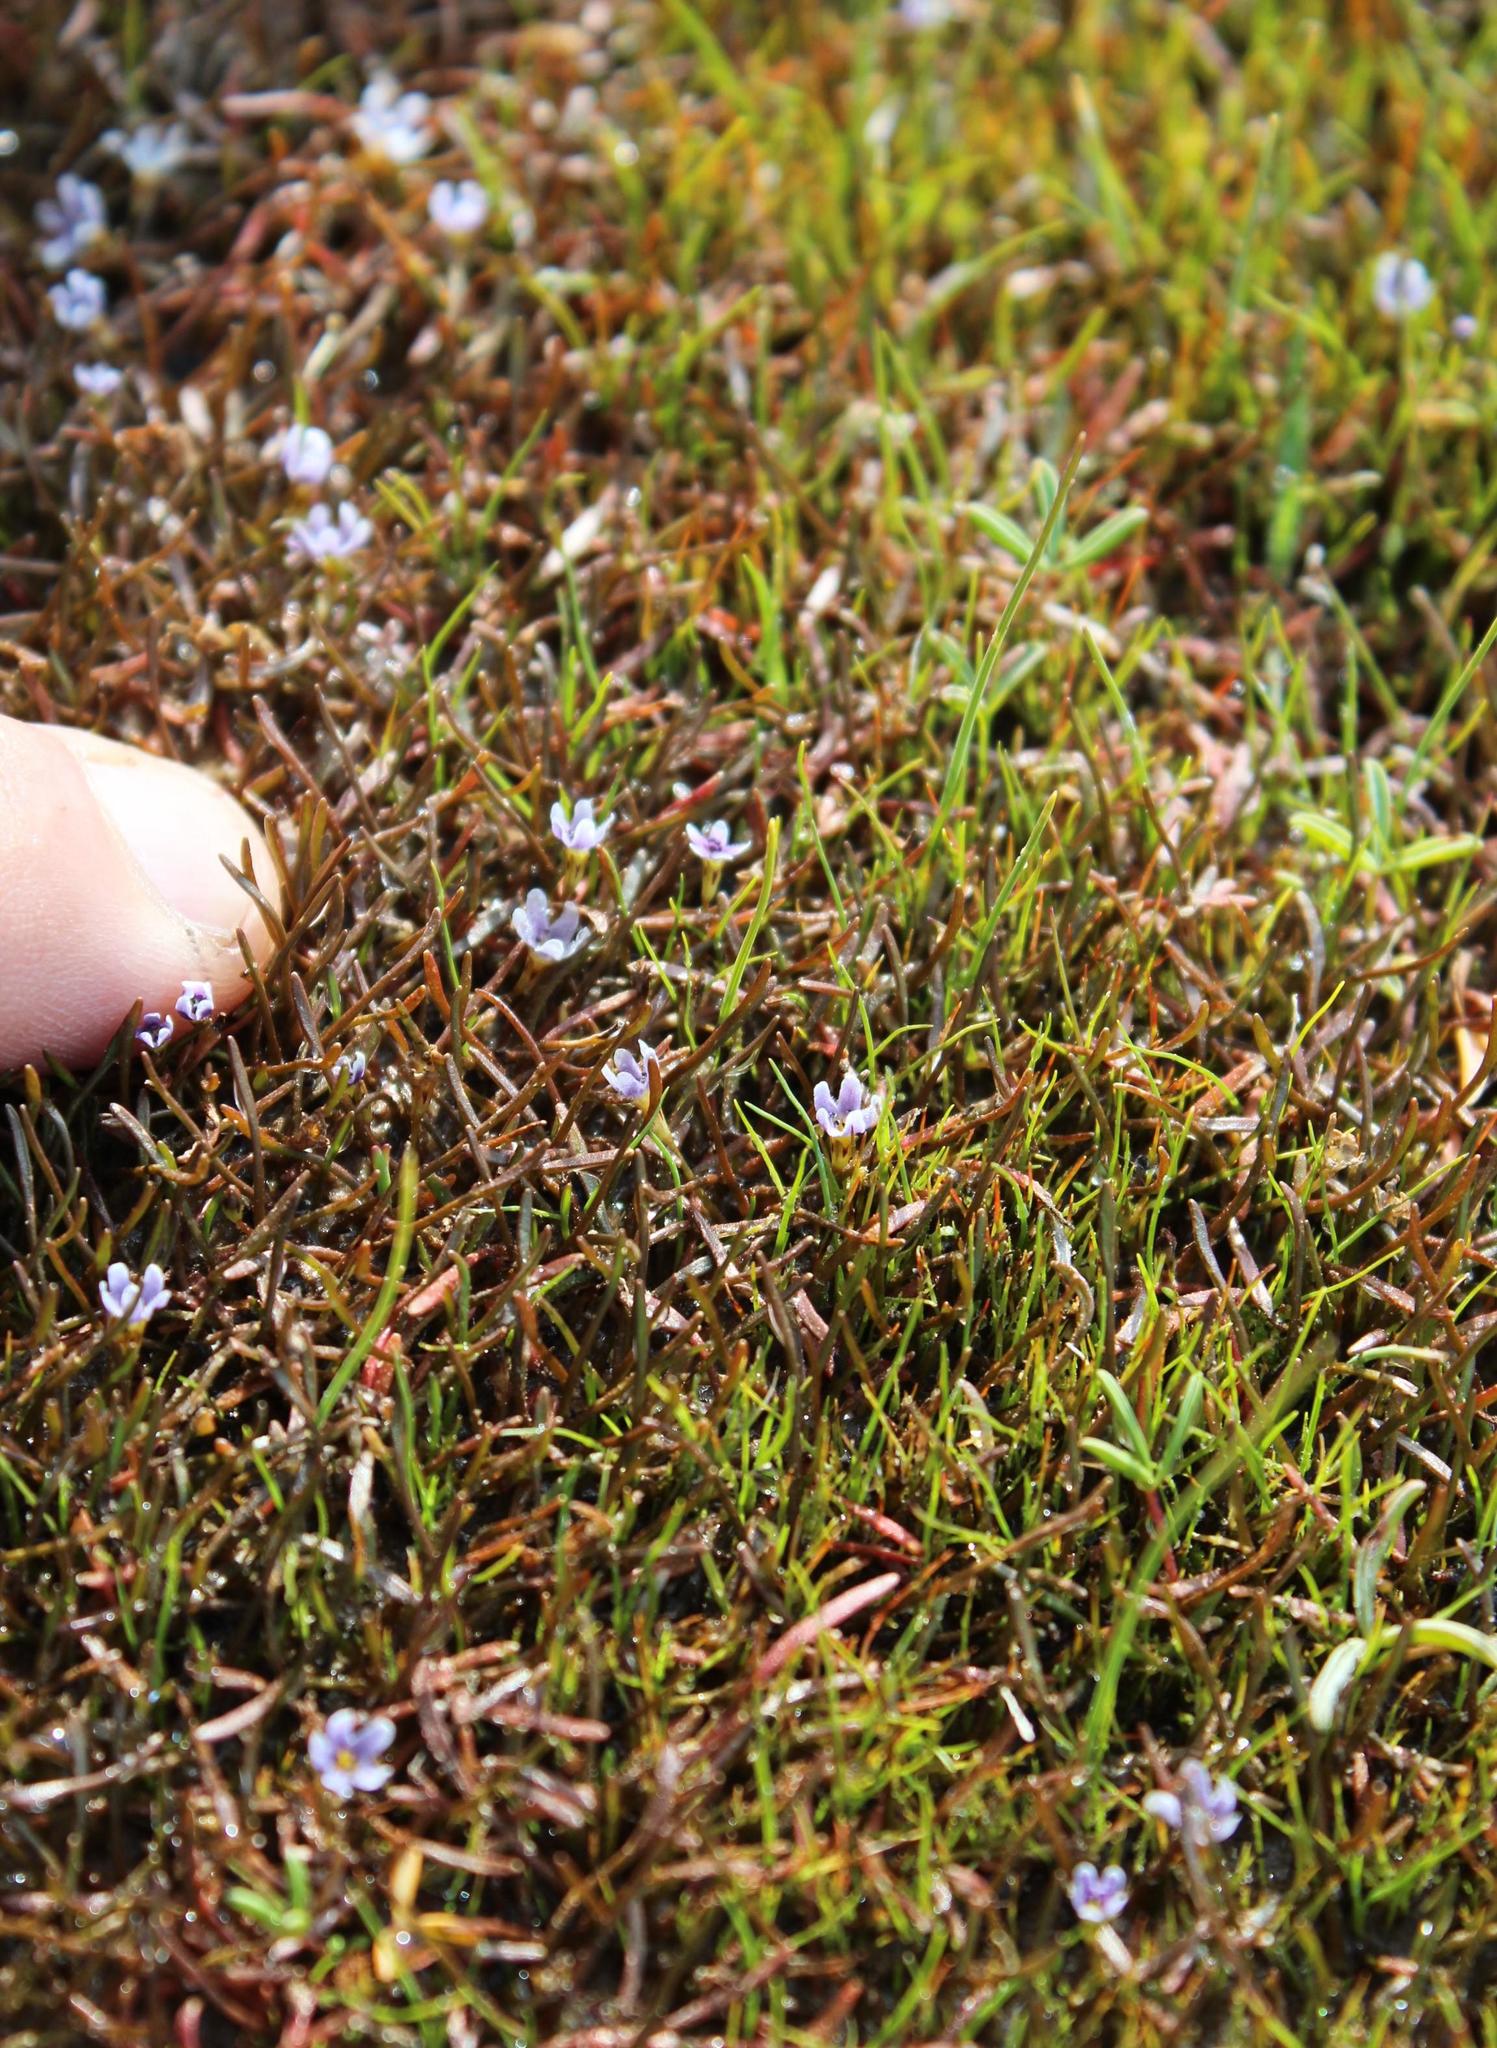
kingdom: Plantae
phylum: Tracheophyta
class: Magnoliopsida
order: Lamiales
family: Scrophulariaceae
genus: Limosella
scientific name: Limosella longiflora
